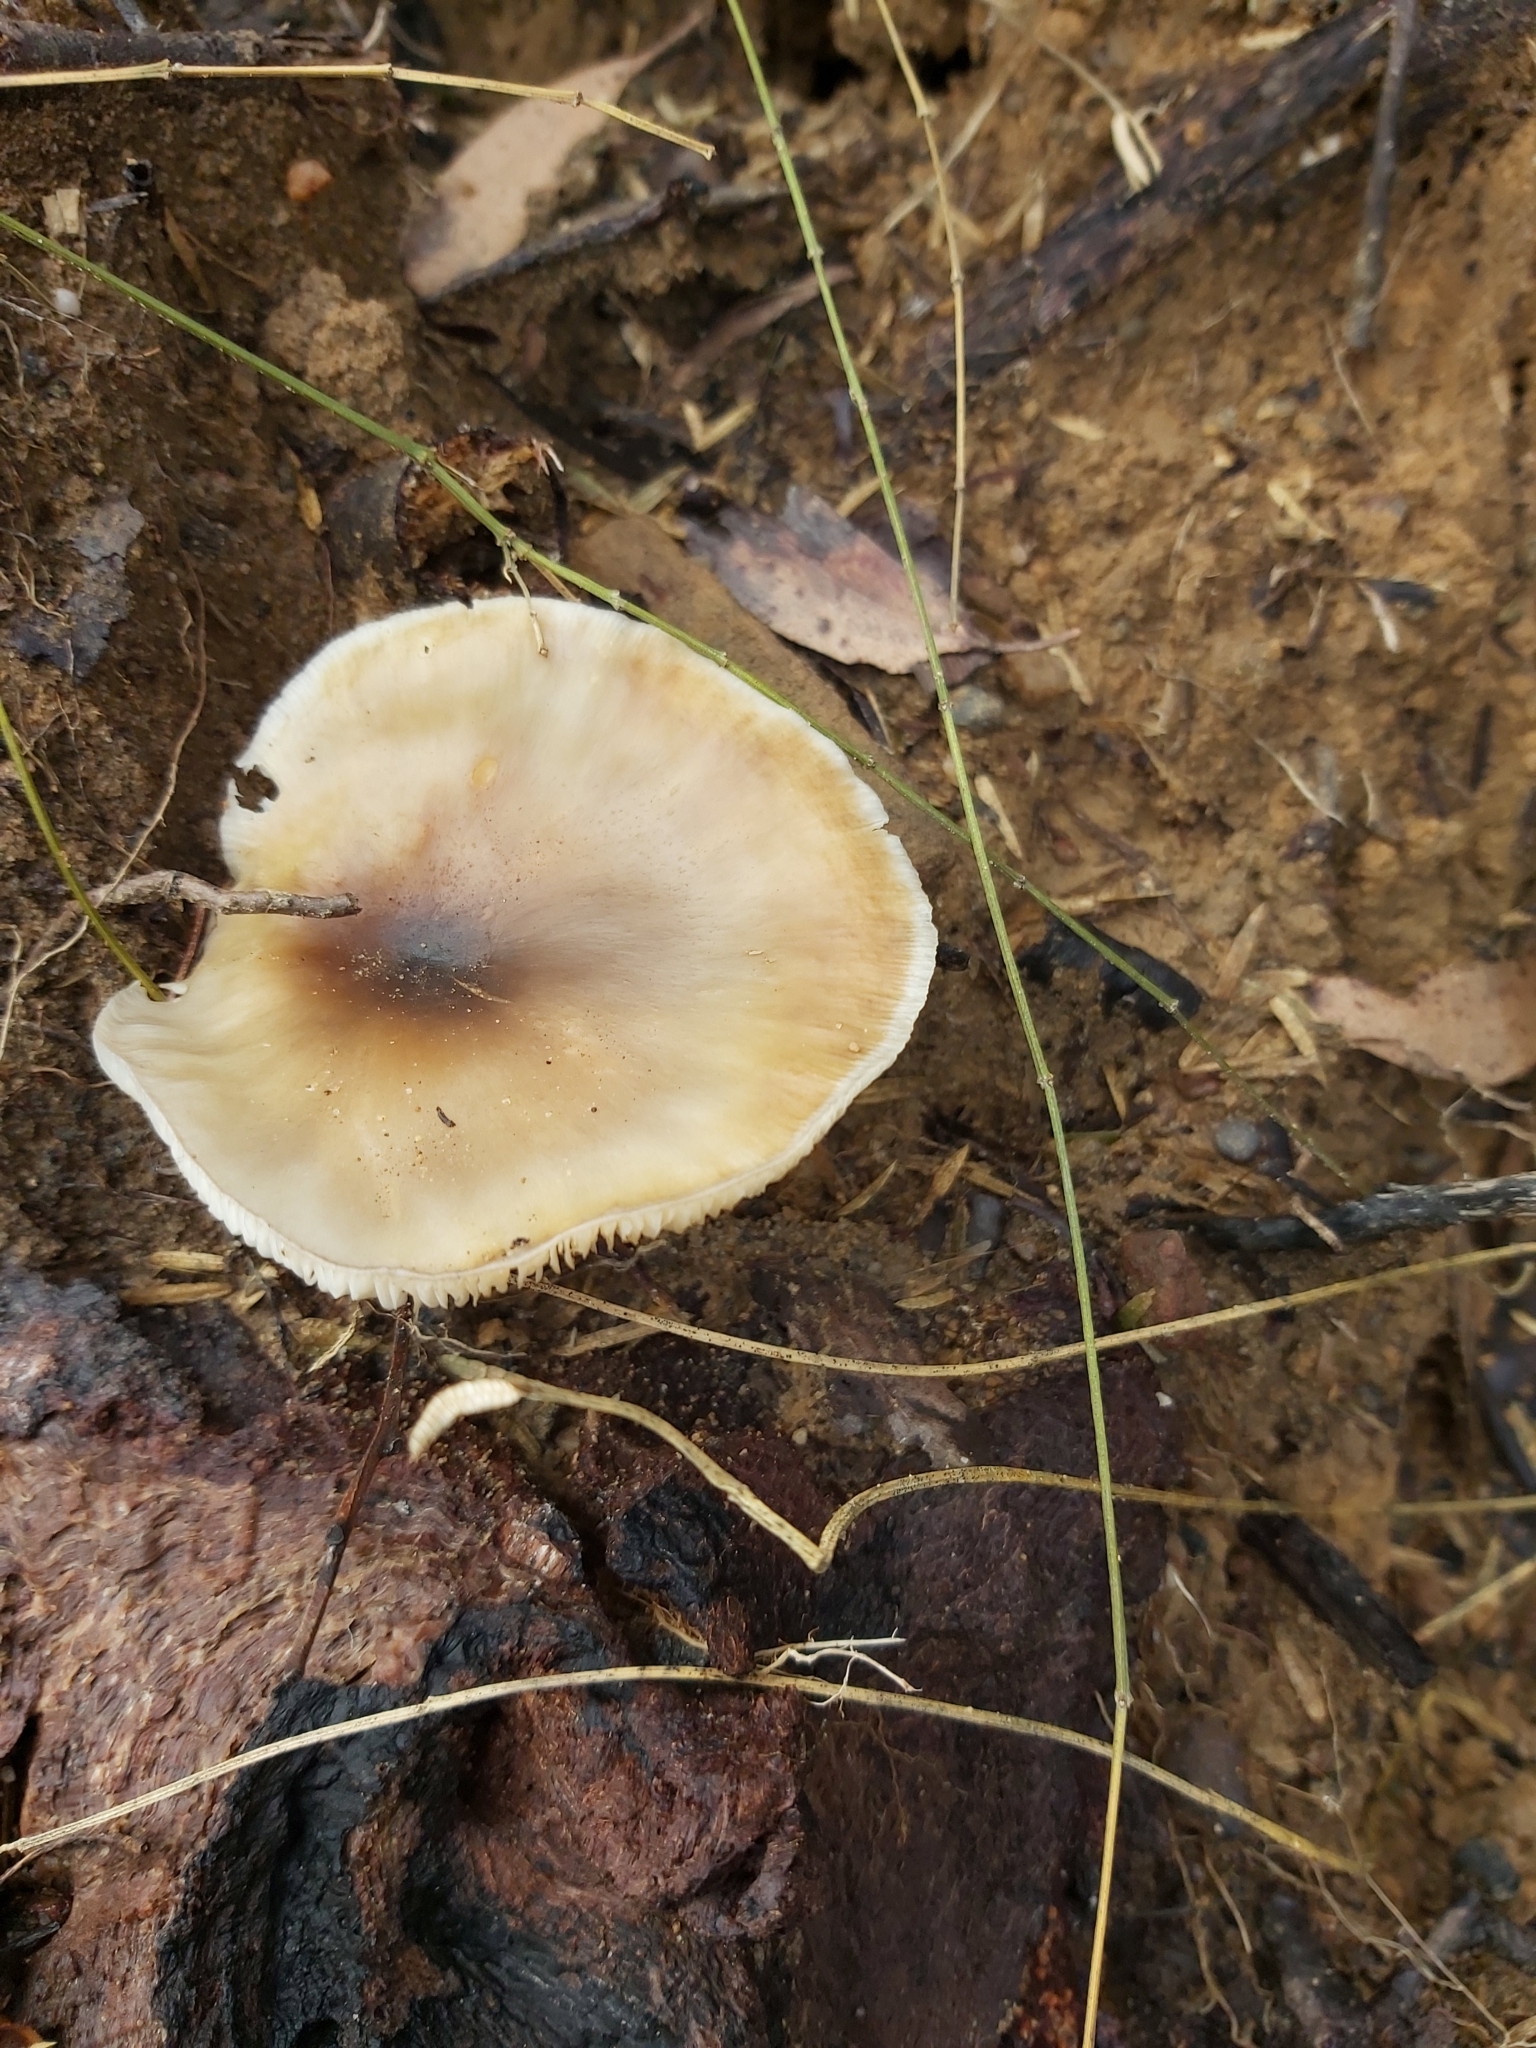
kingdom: Fungi
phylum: Basidiomycota
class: Agaricomycetes
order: Agaricales
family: Omphalotaceae
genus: Omphalotus
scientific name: Omphalotus nidiformis
